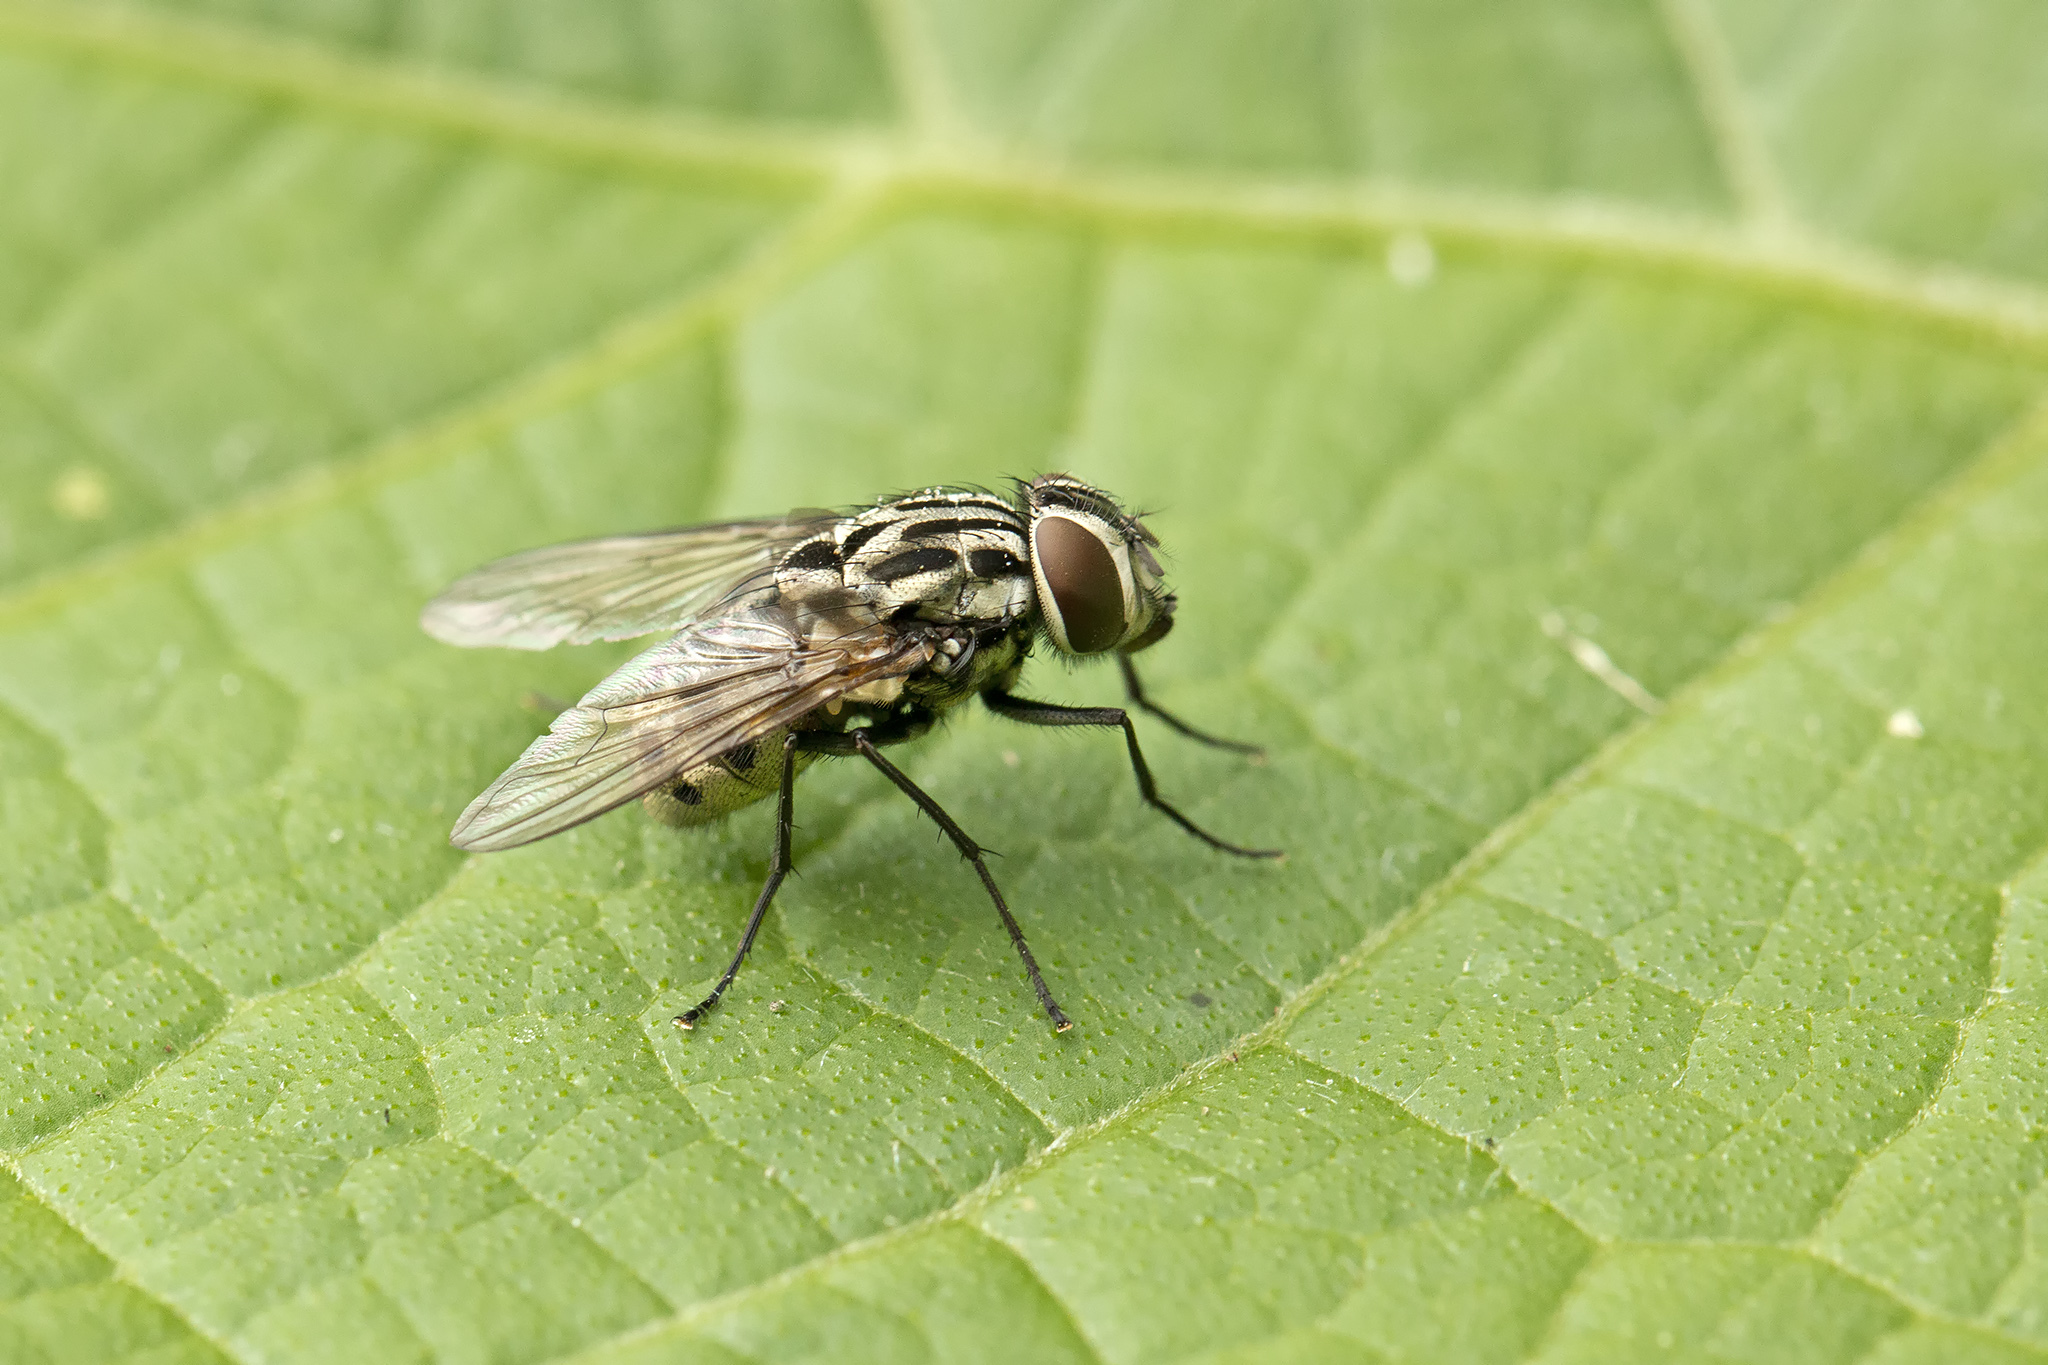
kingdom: Animalia
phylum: Arthropoda
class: Insecta
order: Diptera
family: Muscidae
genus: Graphomya
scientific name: Graphomya maculata
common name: Muscid fly
